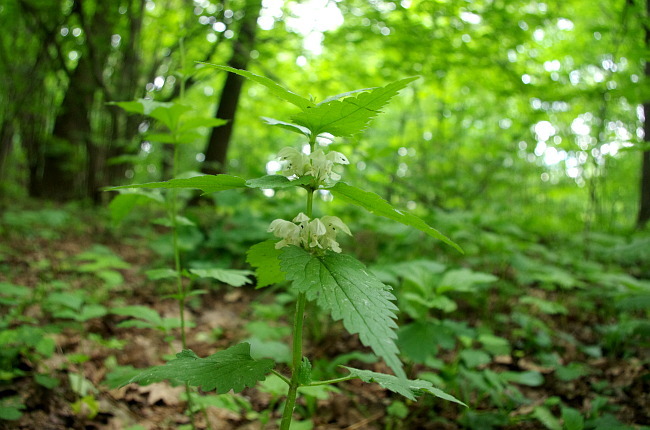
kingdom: Plantae
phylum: Tracheophyta
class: Magnoliopsida
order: Lamiales
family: Lamiaceae
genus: Lamium
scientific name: Lamium album
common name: White dead-nettle
